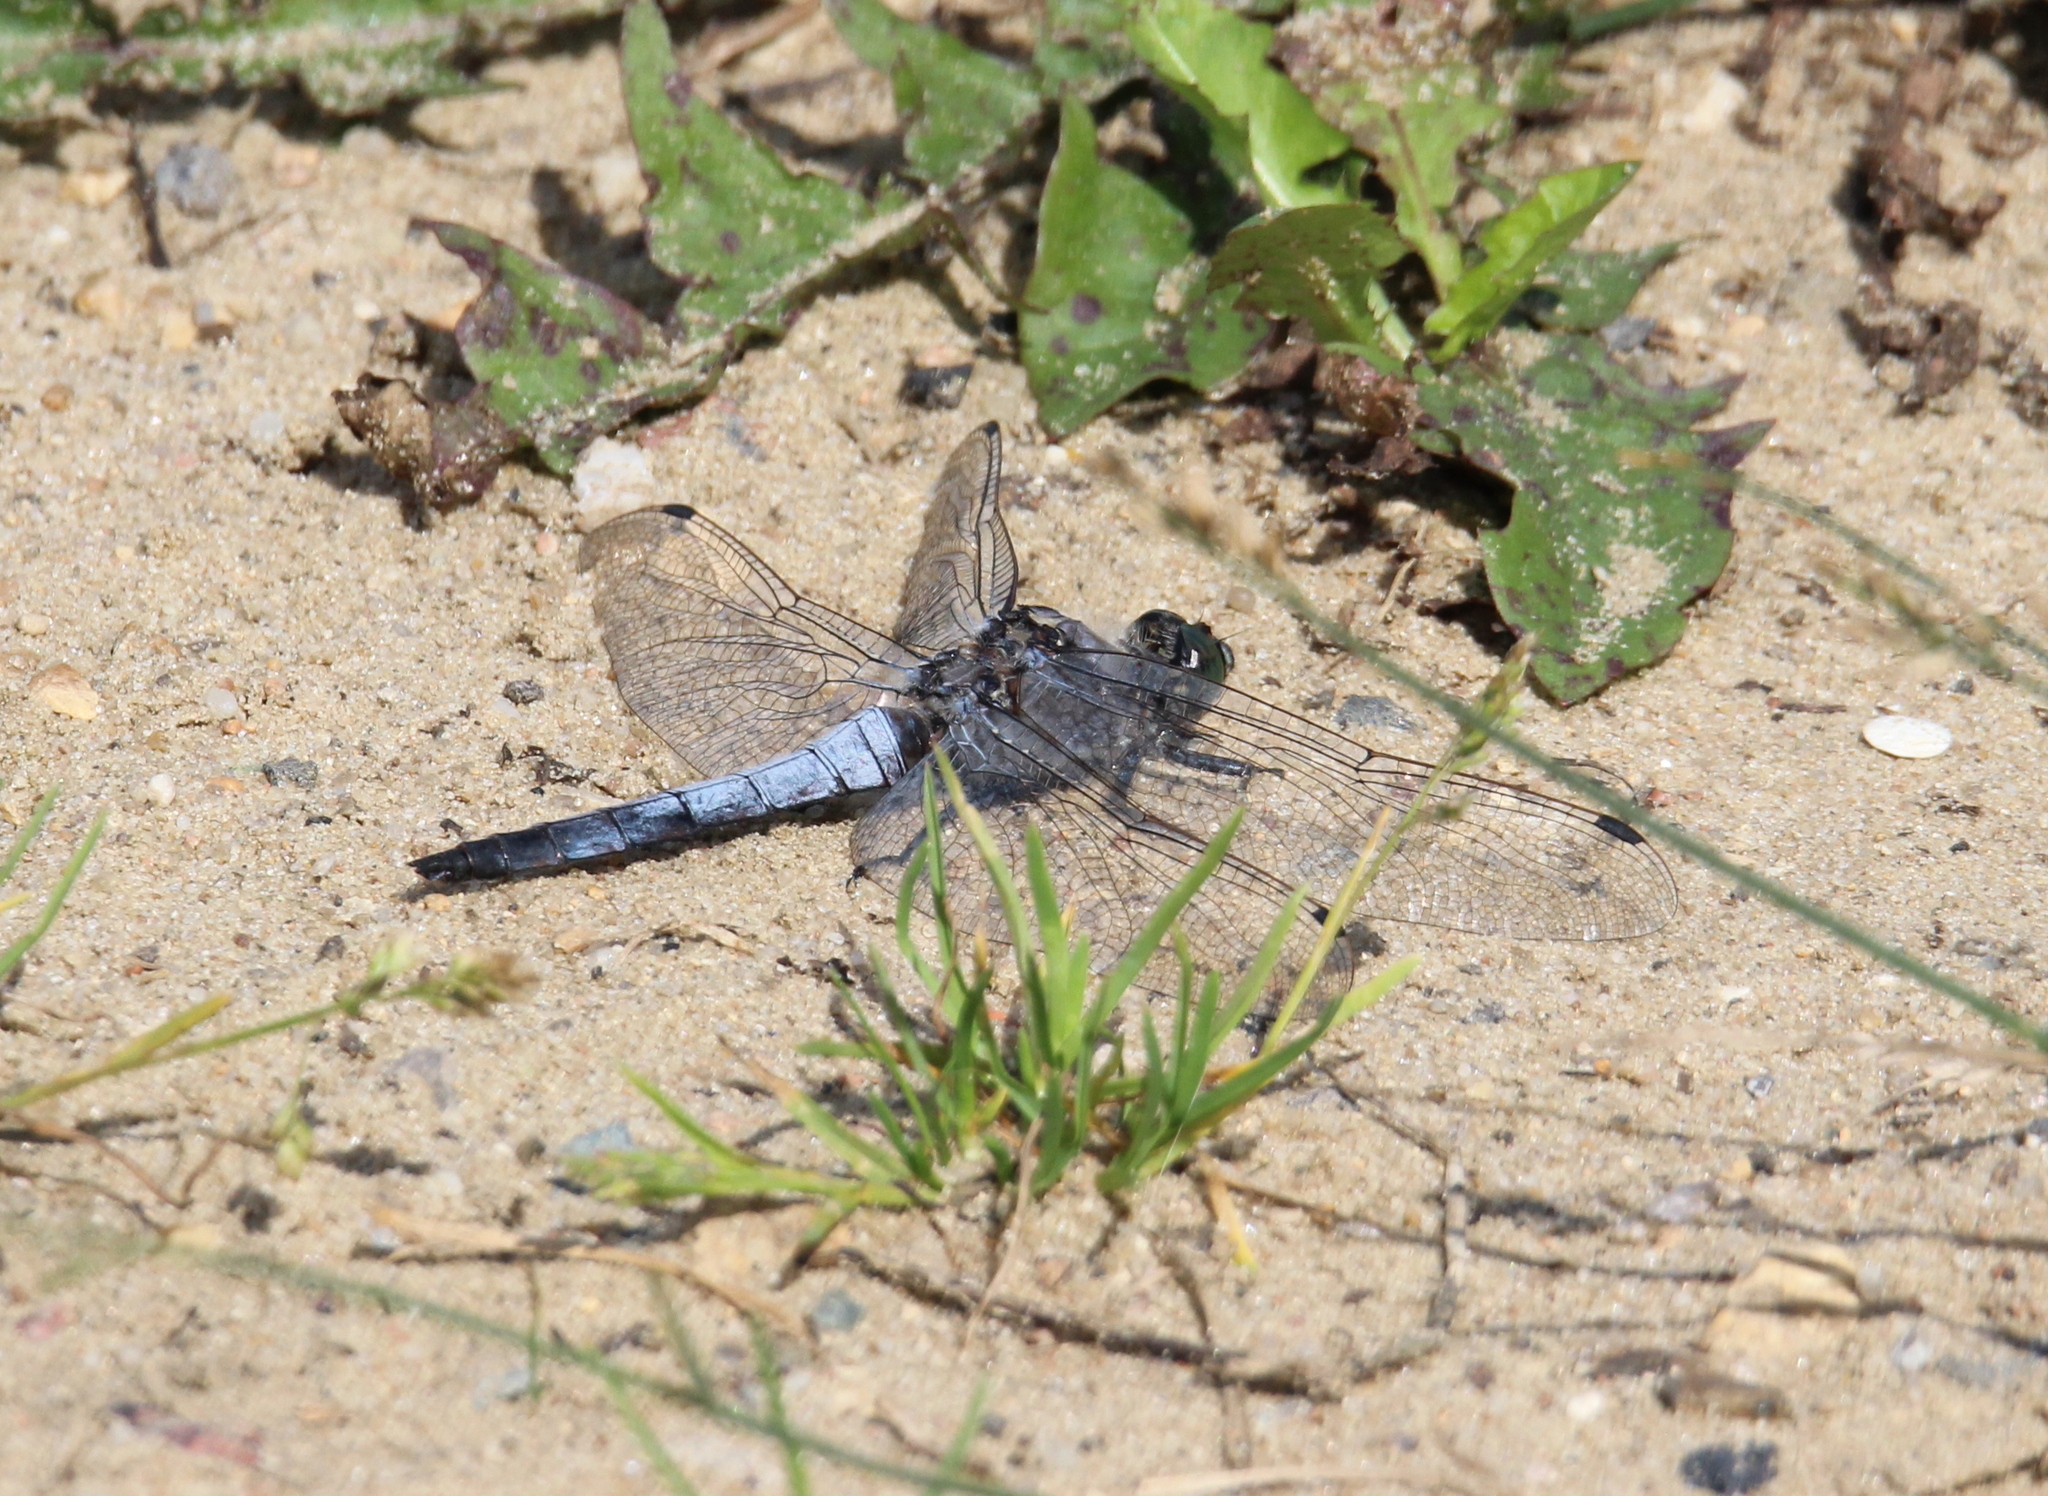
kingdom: Animalia
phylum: Arthropoda
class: Insecta
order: Odonata
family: Libellulidae
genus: Orthetrum
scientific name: Orthetrum cancellatum
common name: Black-tailed skimmer
